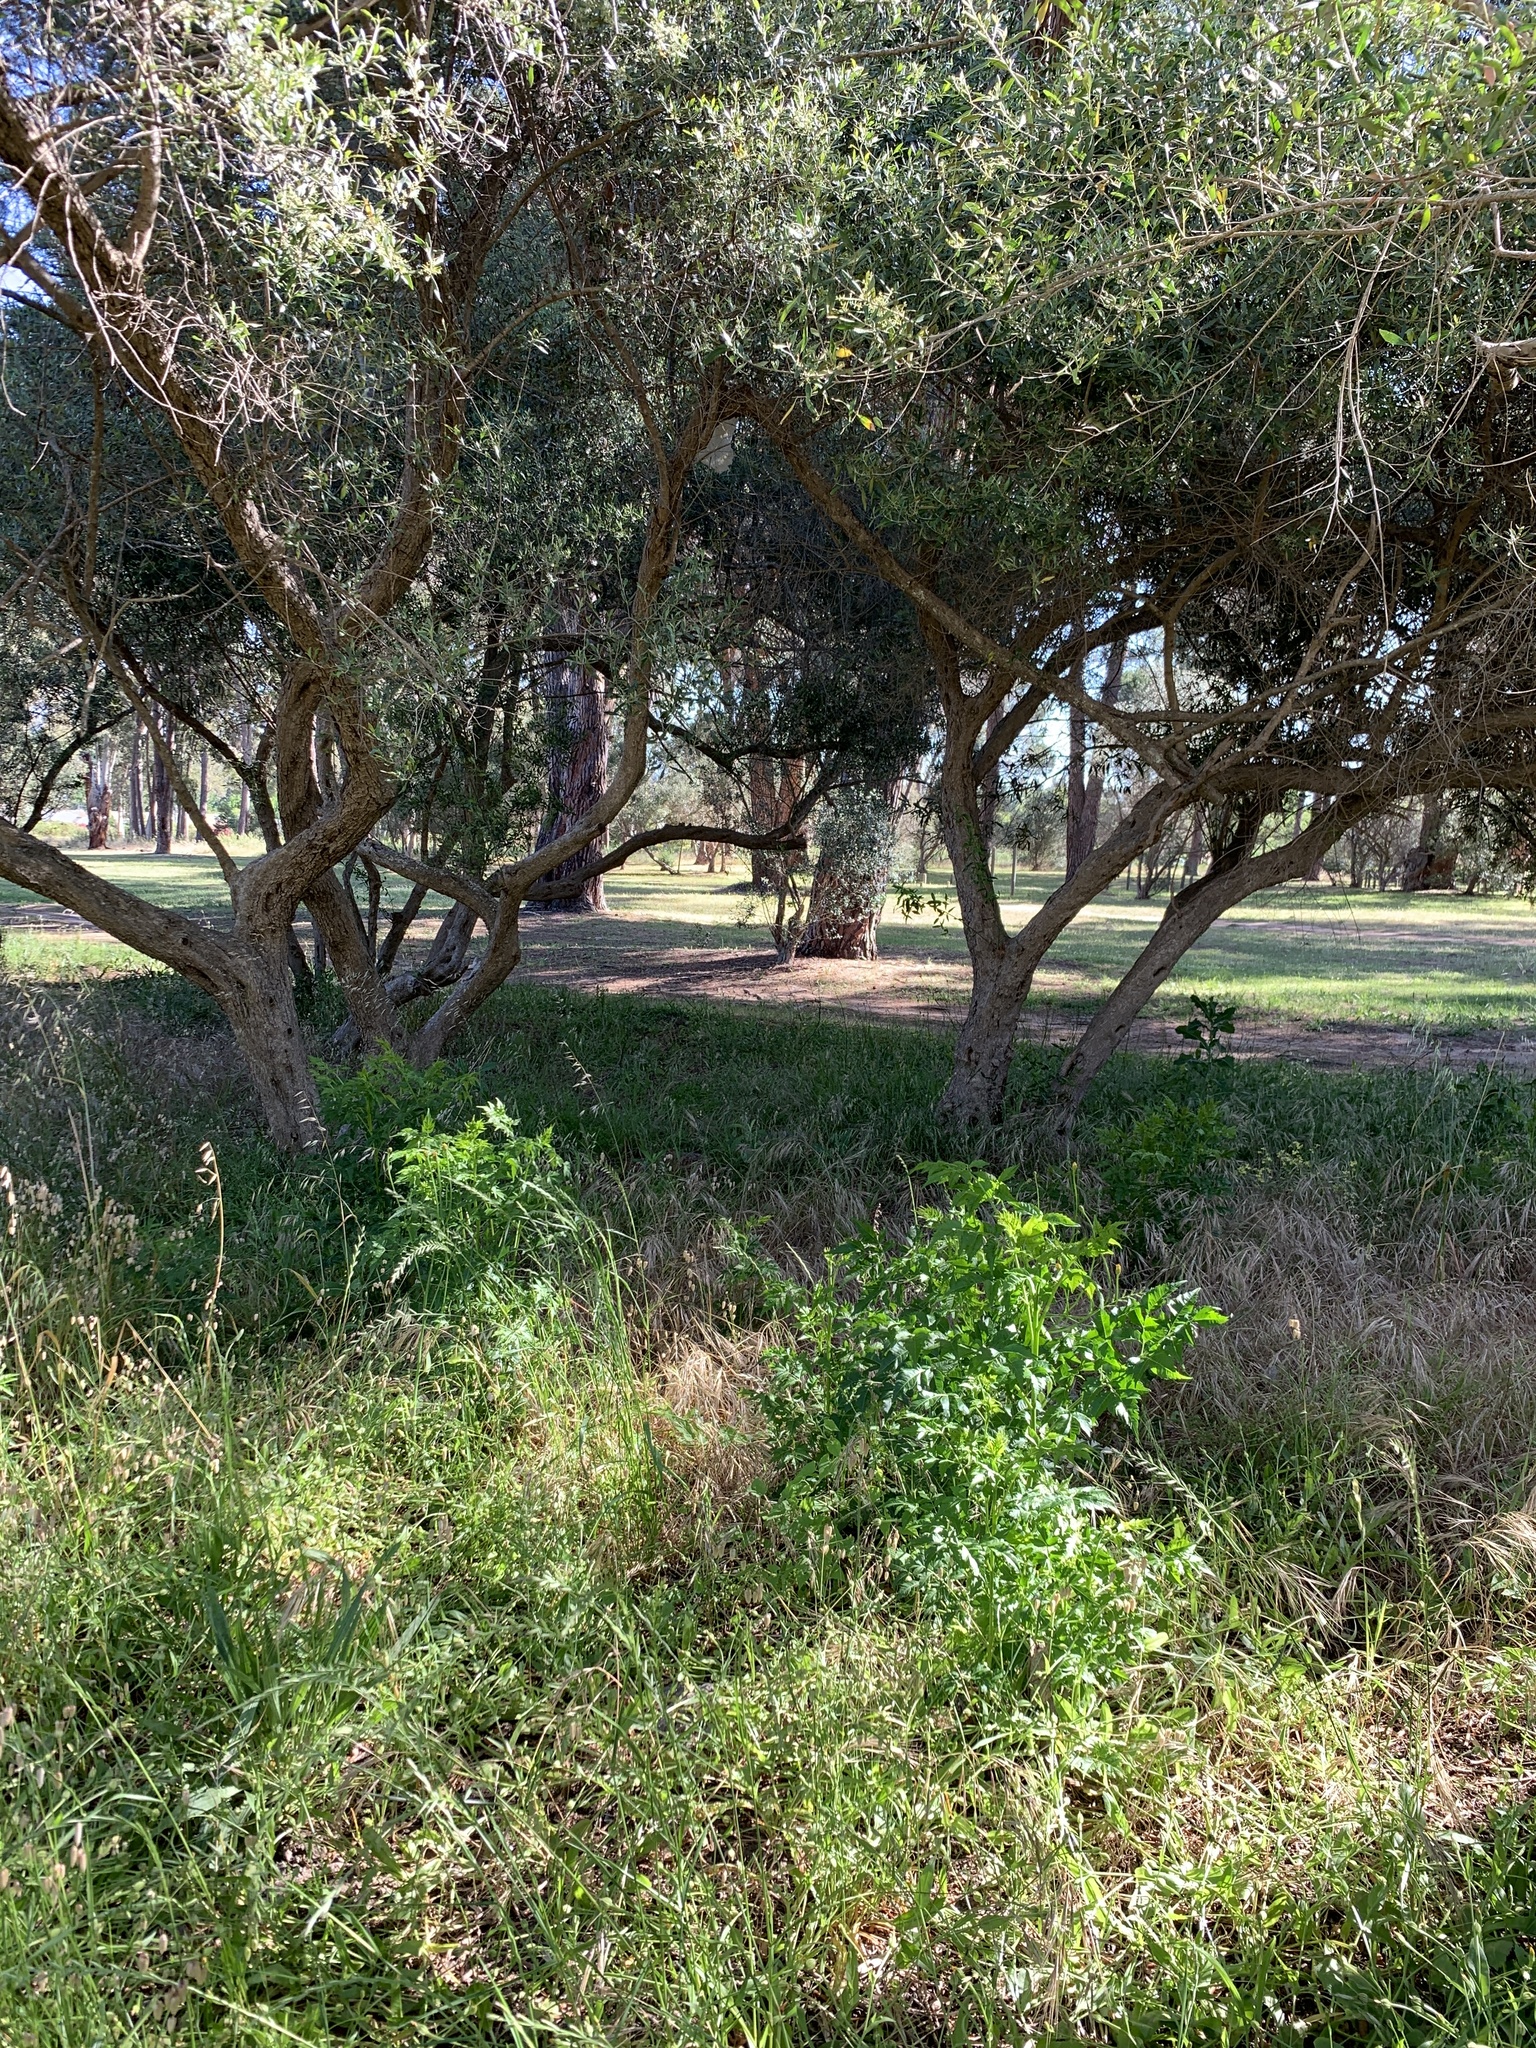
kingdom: Plantae
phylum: Tracheophyta
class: Magnoliopsida
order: Sapindales
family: Meliaceae
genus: Melia
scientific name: Melia azedarach
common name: Chinaberrytree
